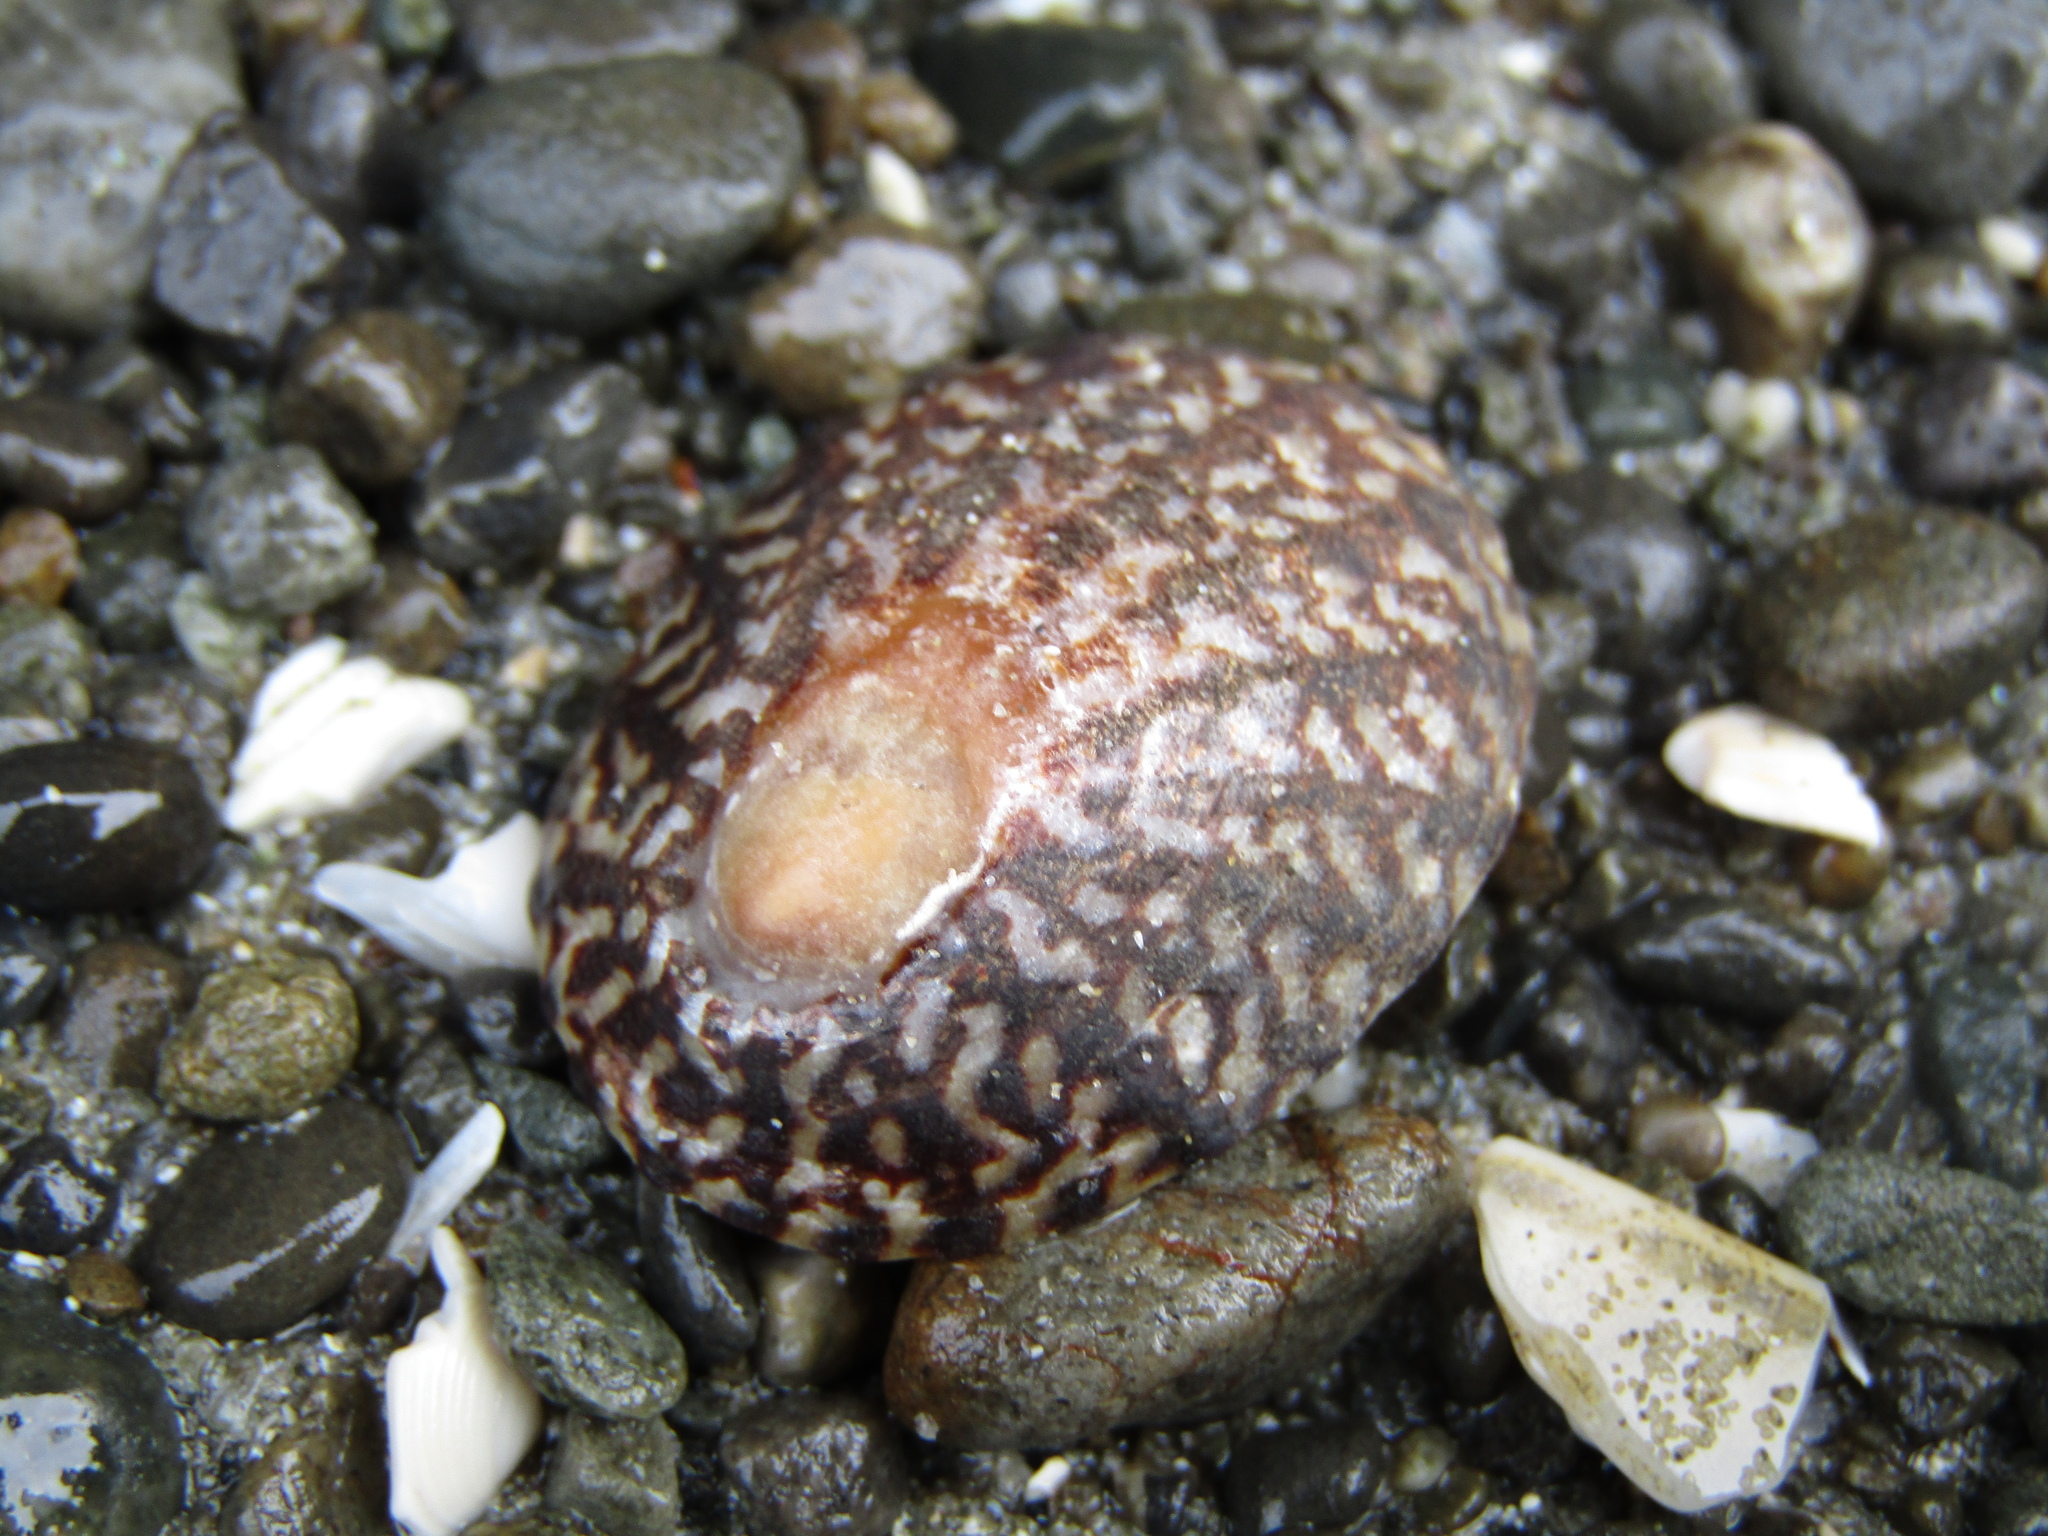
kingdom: Animalia
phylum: Mollusca
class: Gastropoda
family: Nacellidae
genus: Cellana
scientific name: Cellana denticulata
